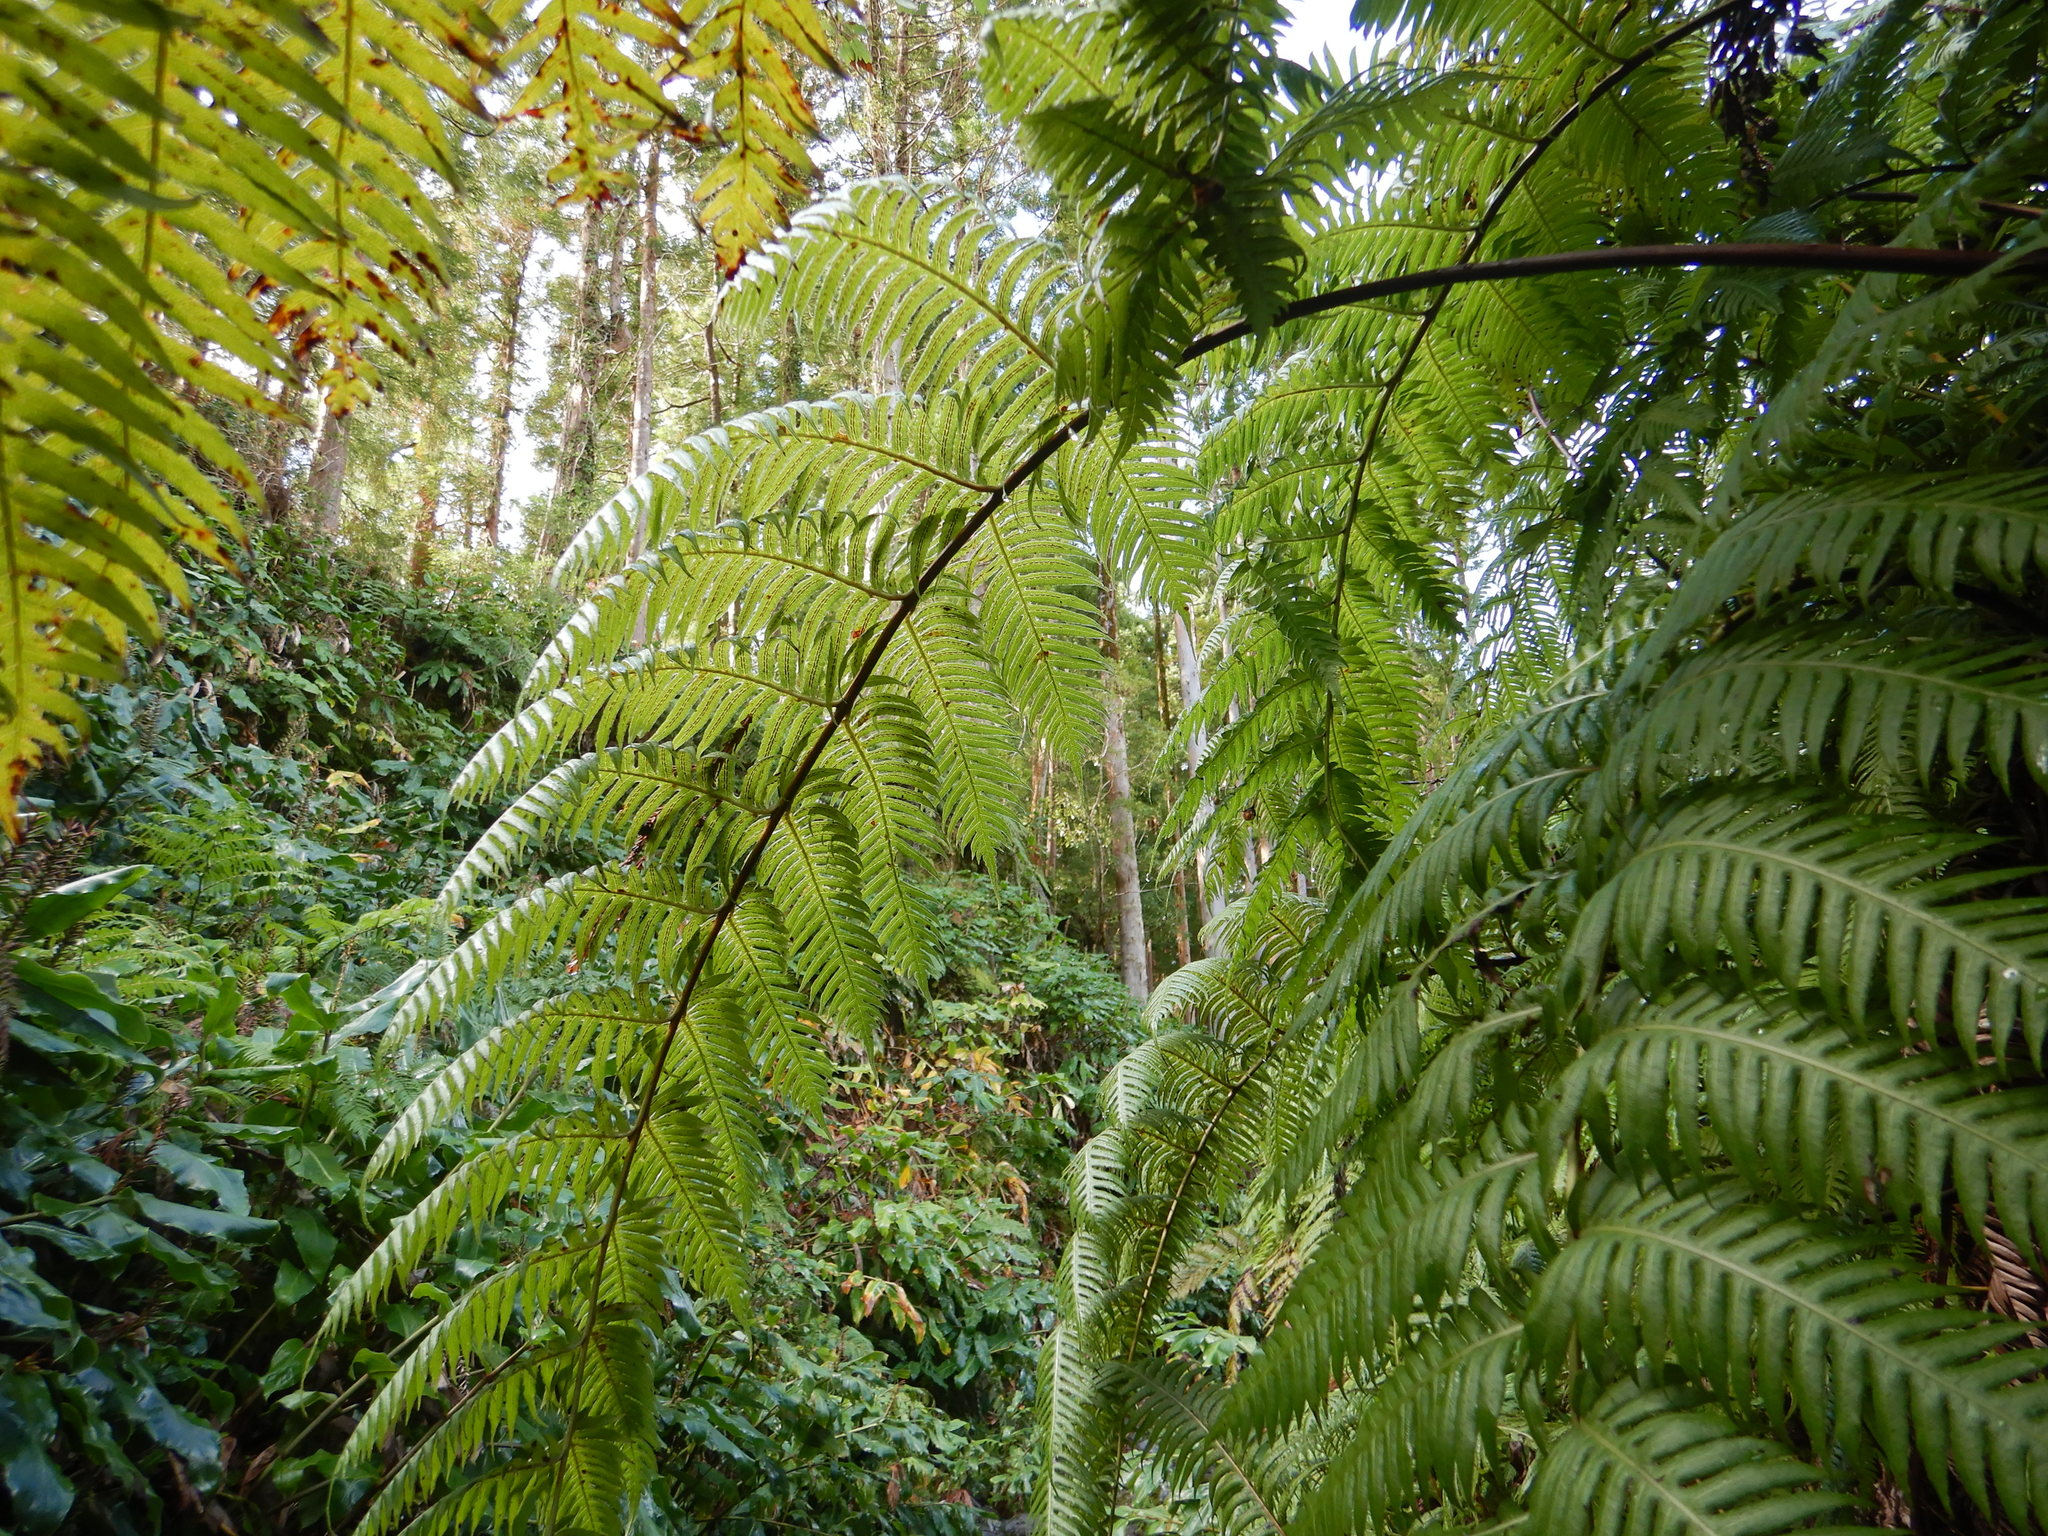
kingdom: Plantae
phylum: Tracheophyta
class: Polypodiopsida
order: Polypodiales
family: Blechnaceae
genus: Woodwardia
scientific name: Woodwardia radicans
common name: Rooting chainfern
